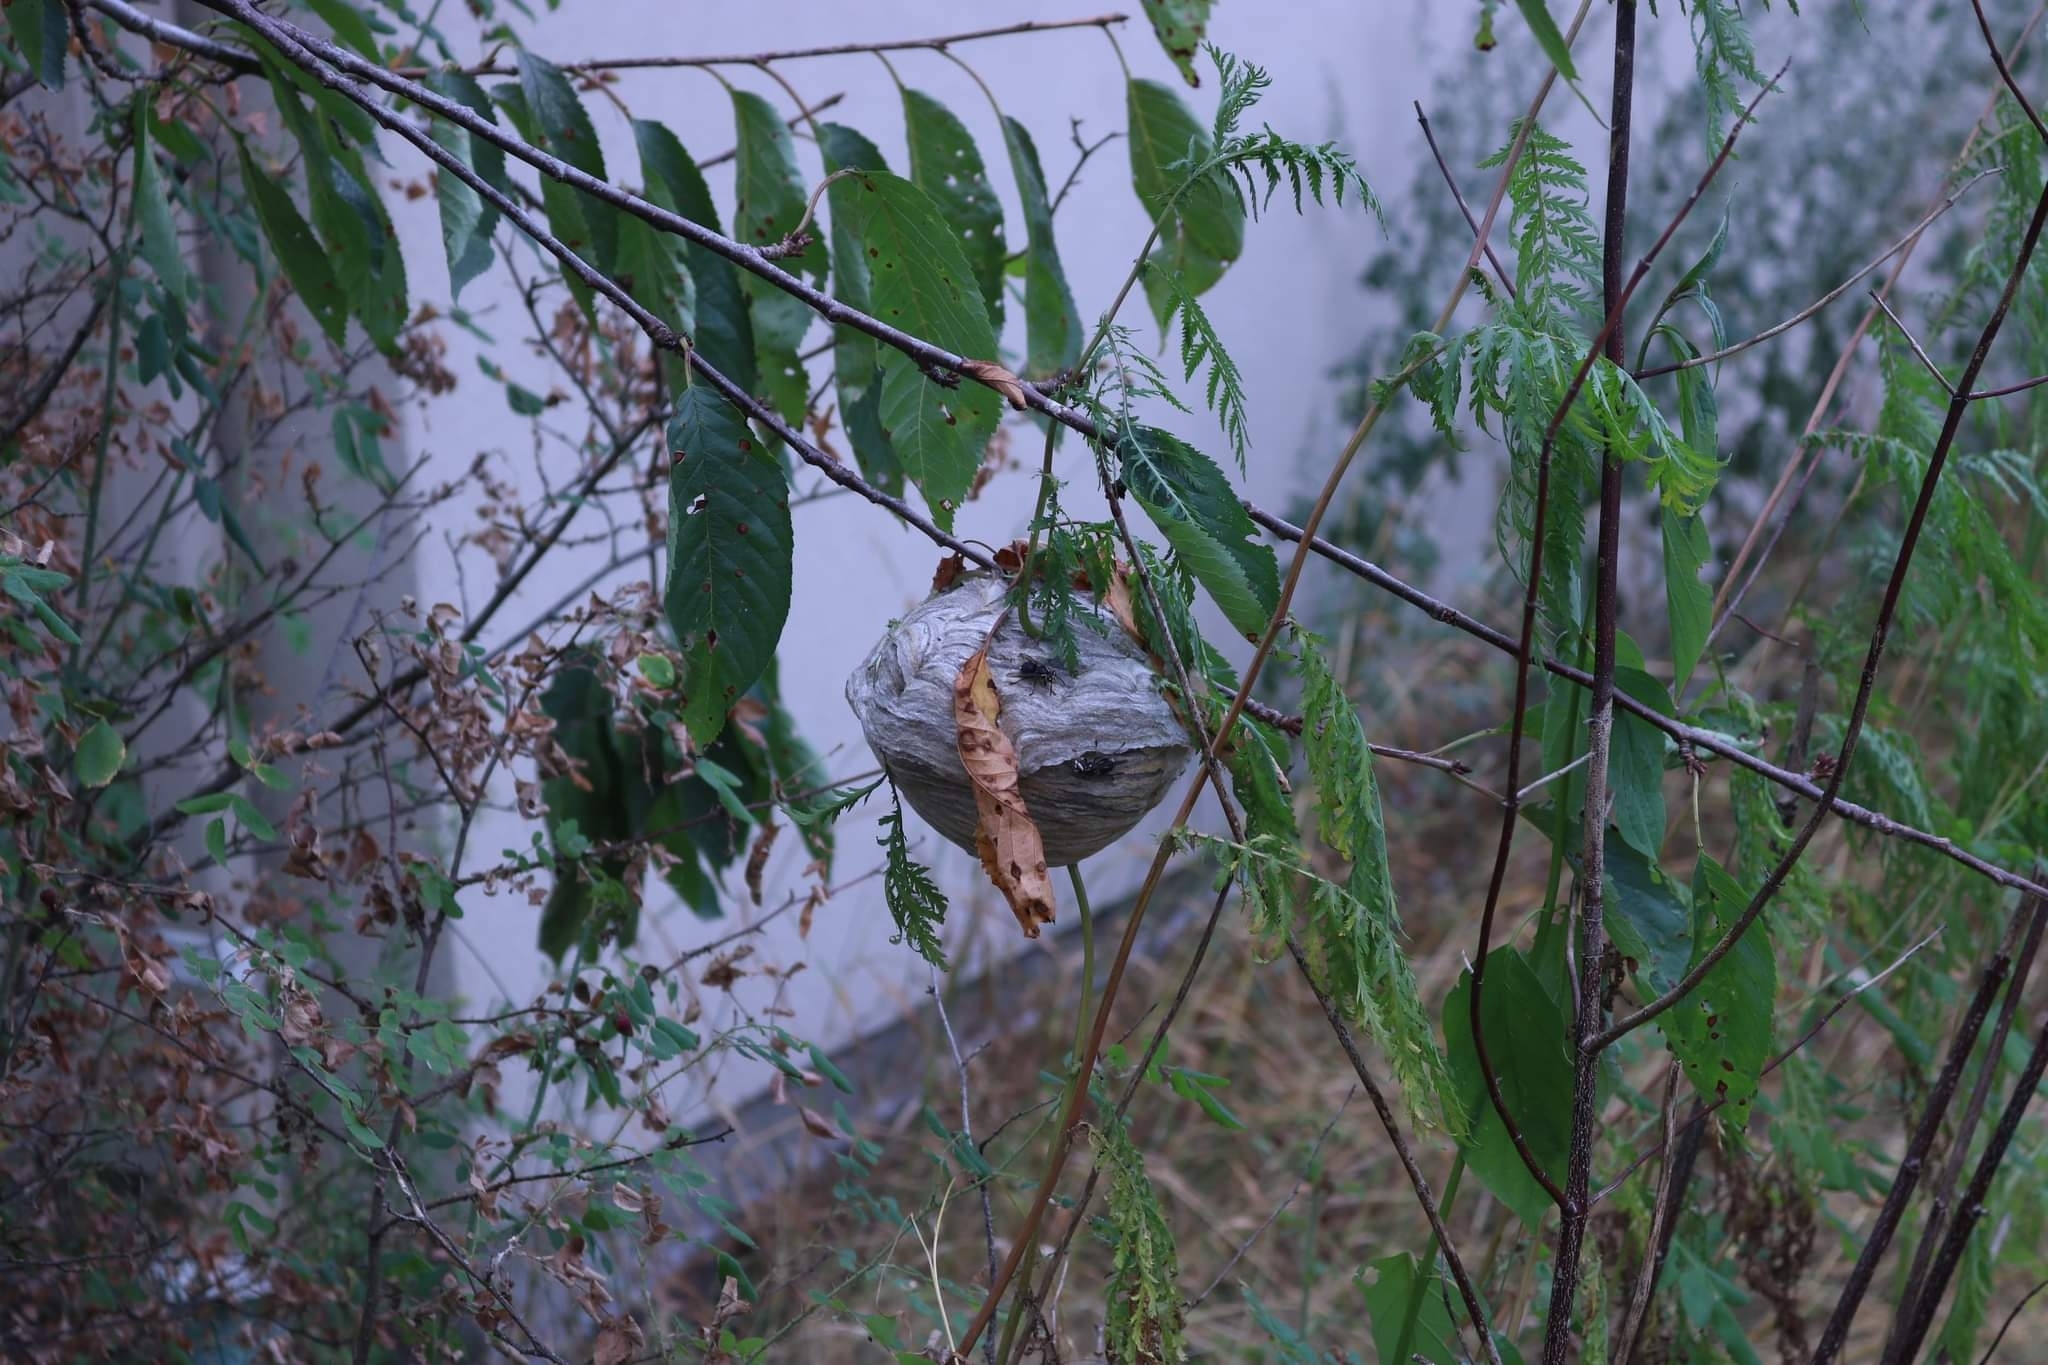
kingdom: Animalia
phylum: Arthropoda
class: Insecta
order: Hymenoptera
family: Vespidae
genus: Dolichovespula
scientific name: Dolichovespula maculata
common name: Bald-faced hornet
